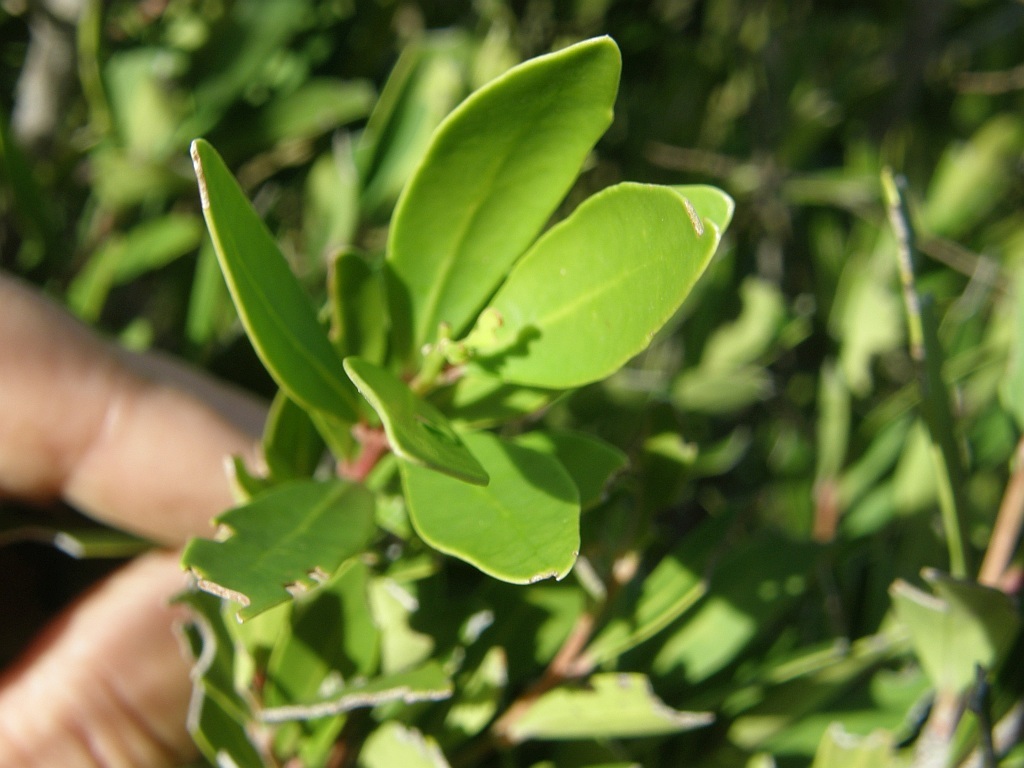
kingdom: Plantae
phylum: Tracheophyta
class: Magnoliopsida
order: Celastrales
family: Celastraceae
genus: Gymnosporia
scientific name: Gymnosporia laurina
